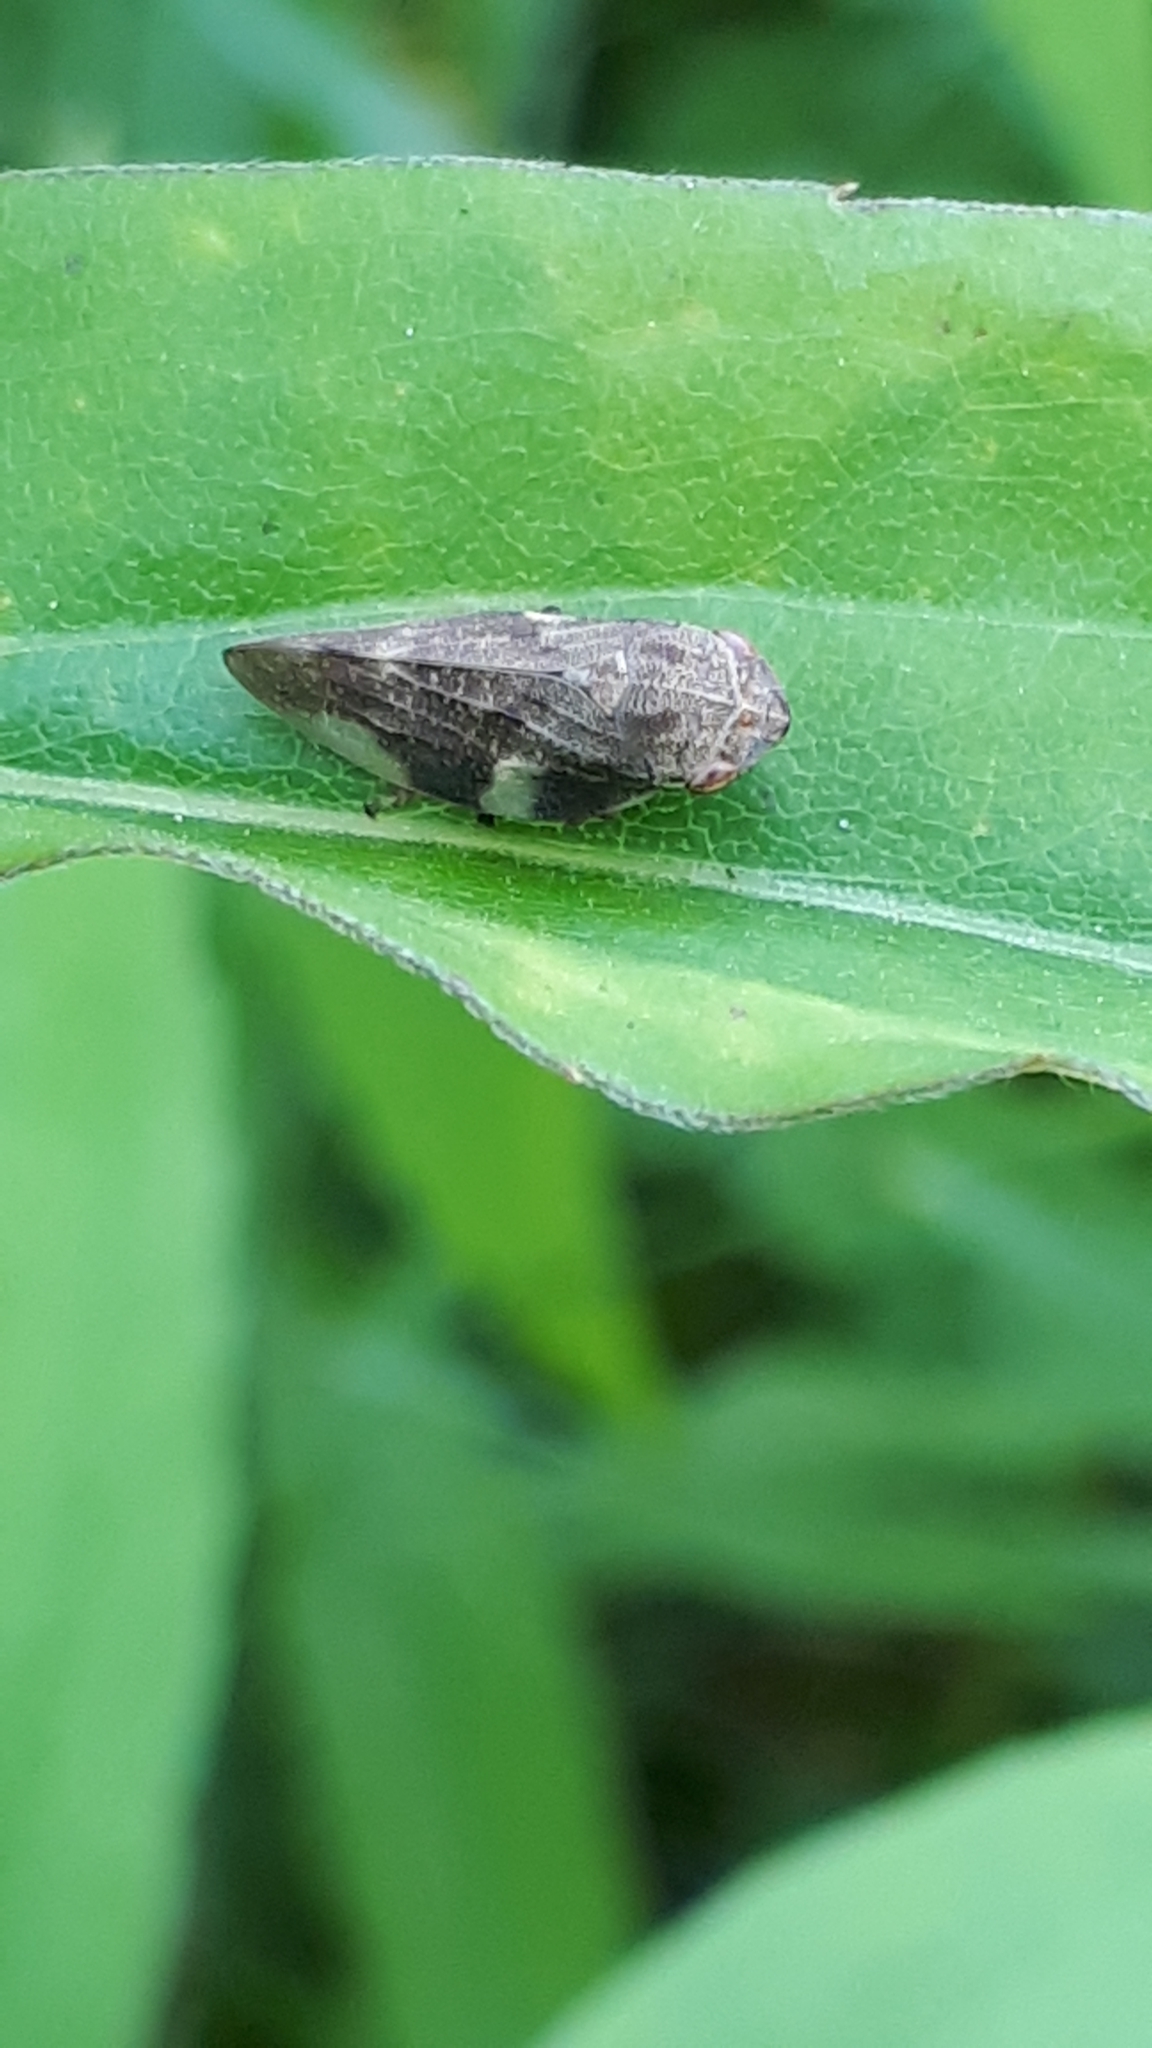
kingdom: Animalia
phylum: Arthropoda
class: Insecta
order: Hemiptera
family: Aphrophoridae
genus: Aphrophora
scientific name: Aphrophora alni
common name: European alder spittlebug
